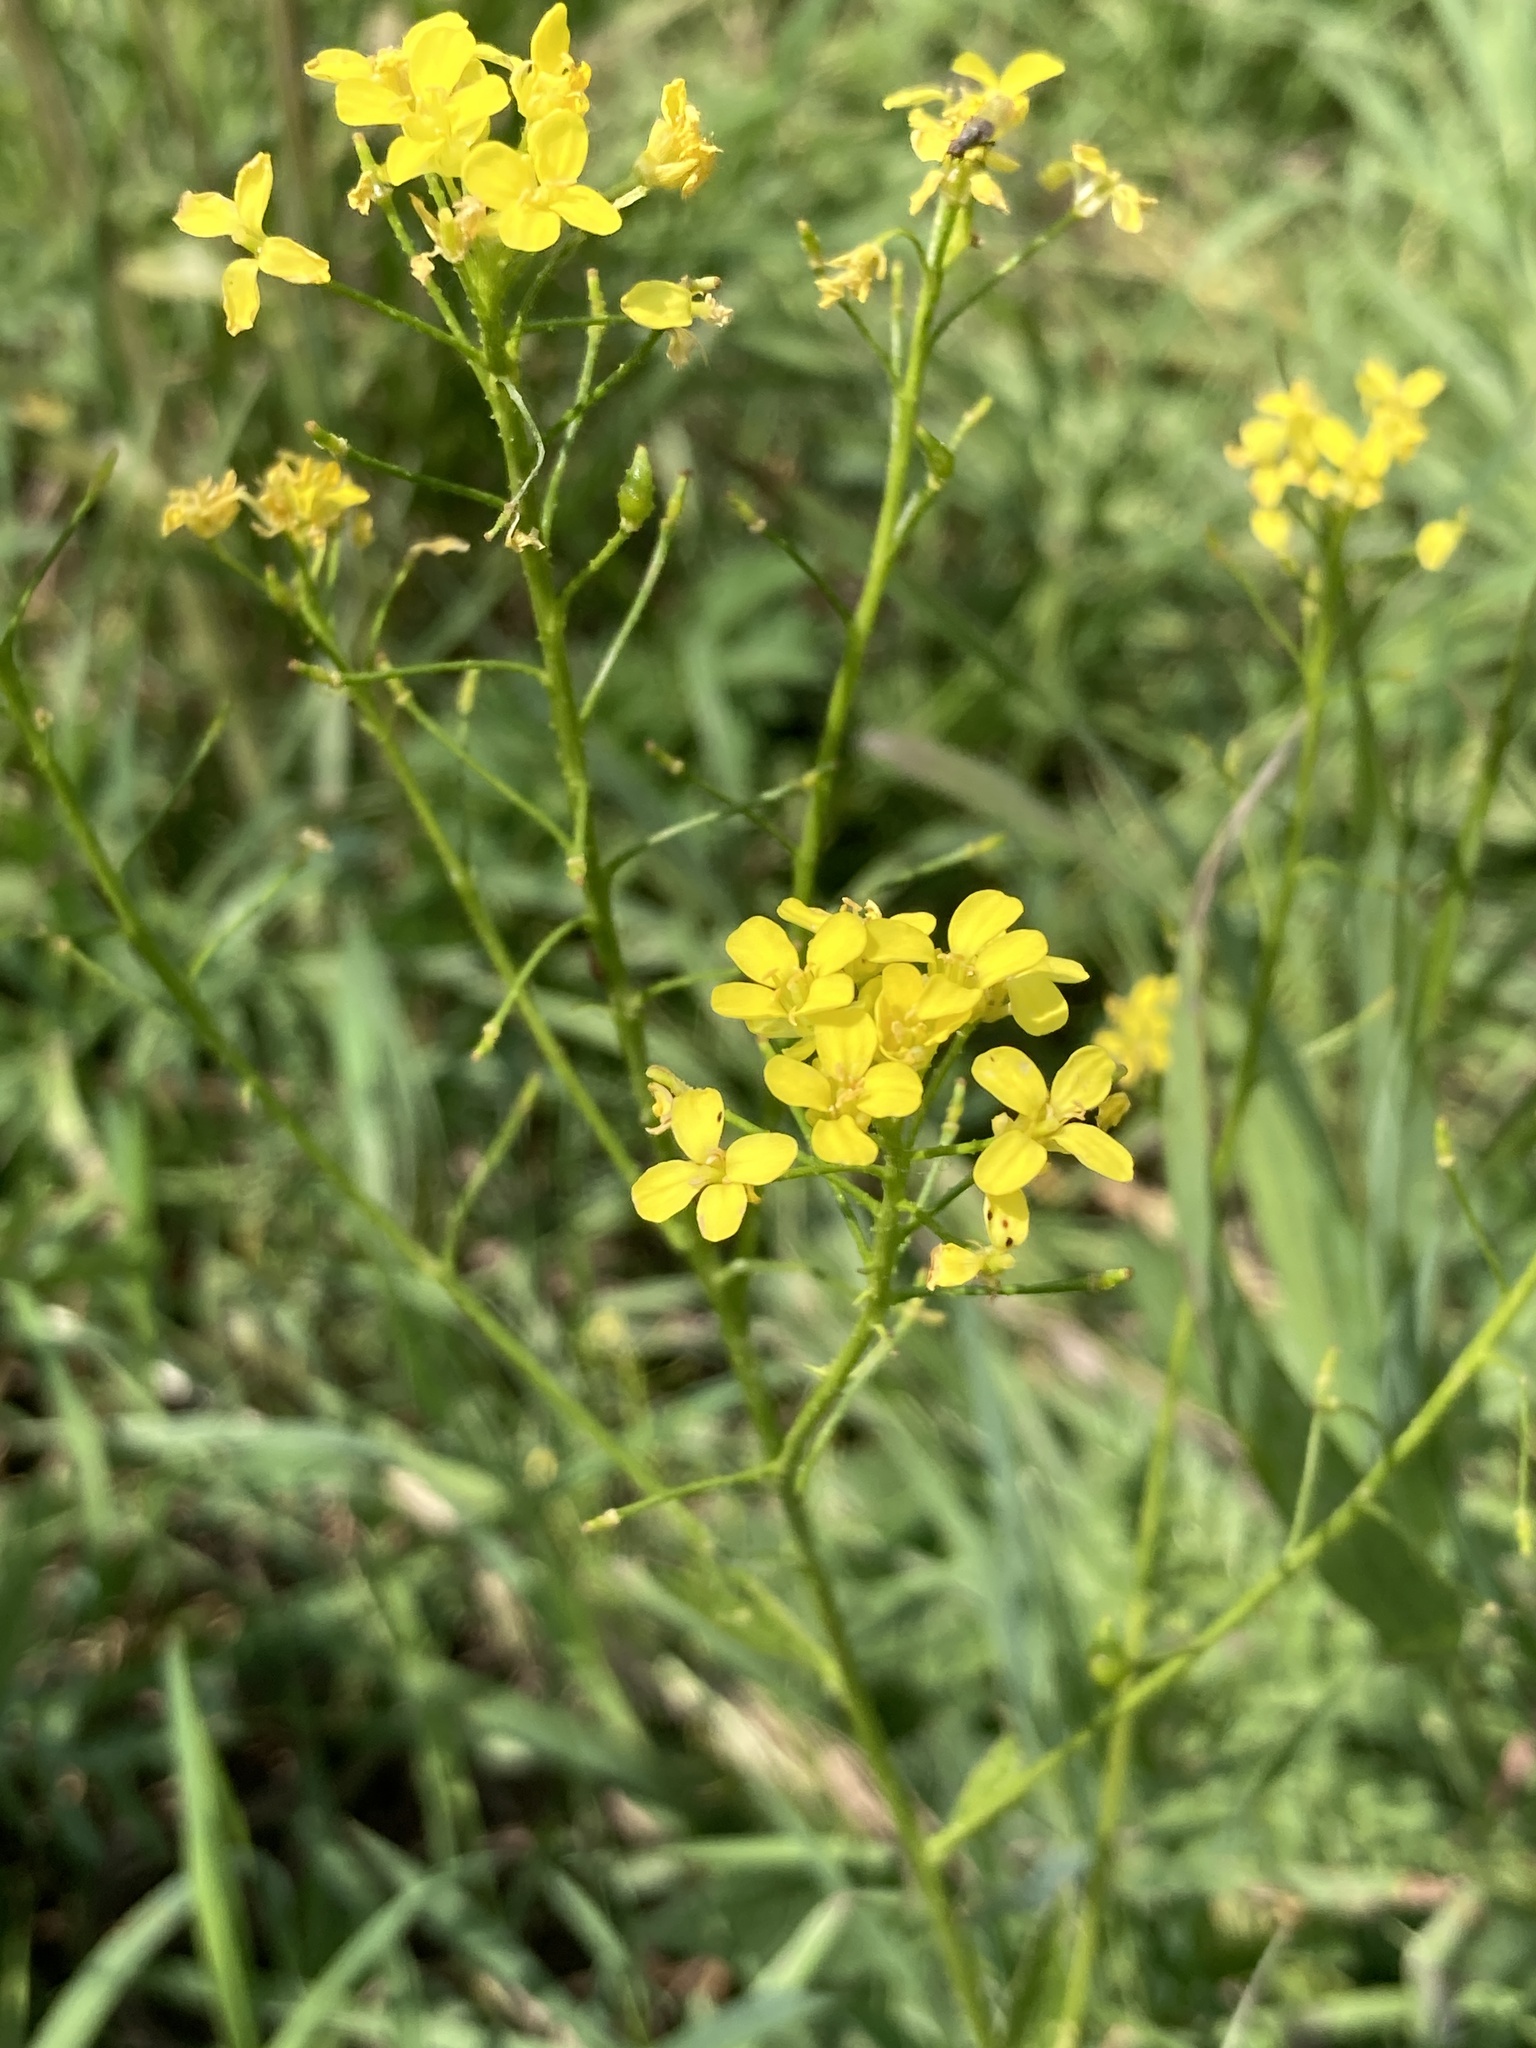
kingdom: Plantae
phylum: Tracheophyta
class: Magnoliopsida
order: Brassicales
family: Brassicaceae
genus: Bunias
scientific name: Bunias orientalis
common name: Warty-cabbage
